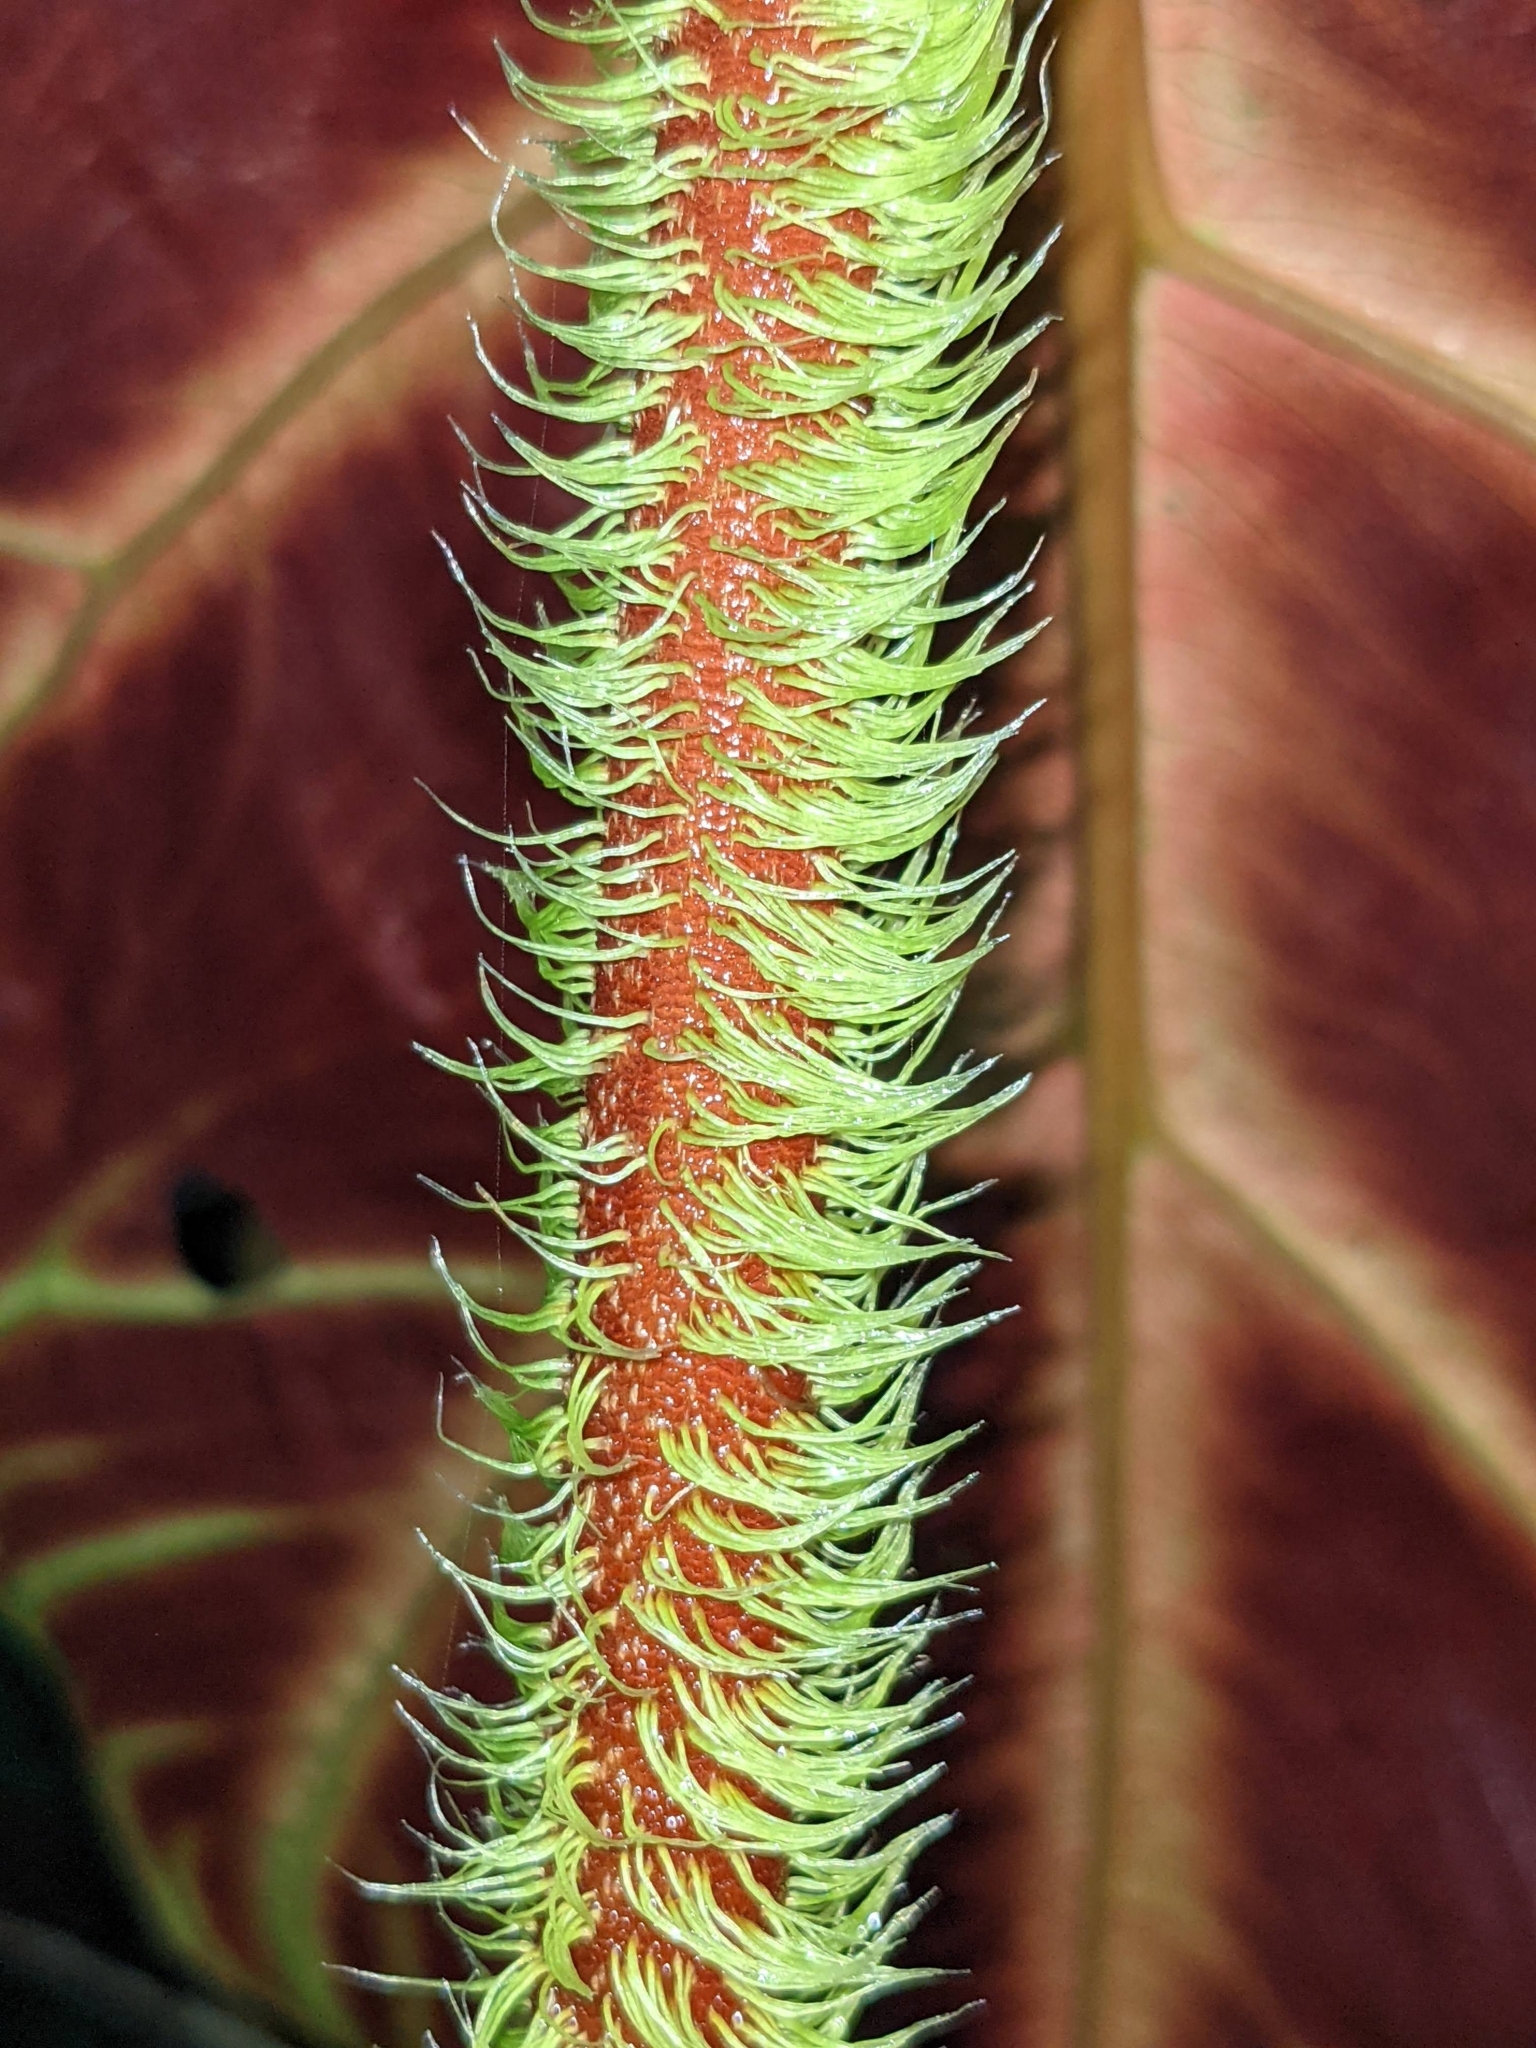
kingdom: Plantae
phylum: Tracheophyta
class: Liliopsida
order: Alismatales
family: Araceae
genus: Philodendron
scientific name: Philodendron verrucosum
